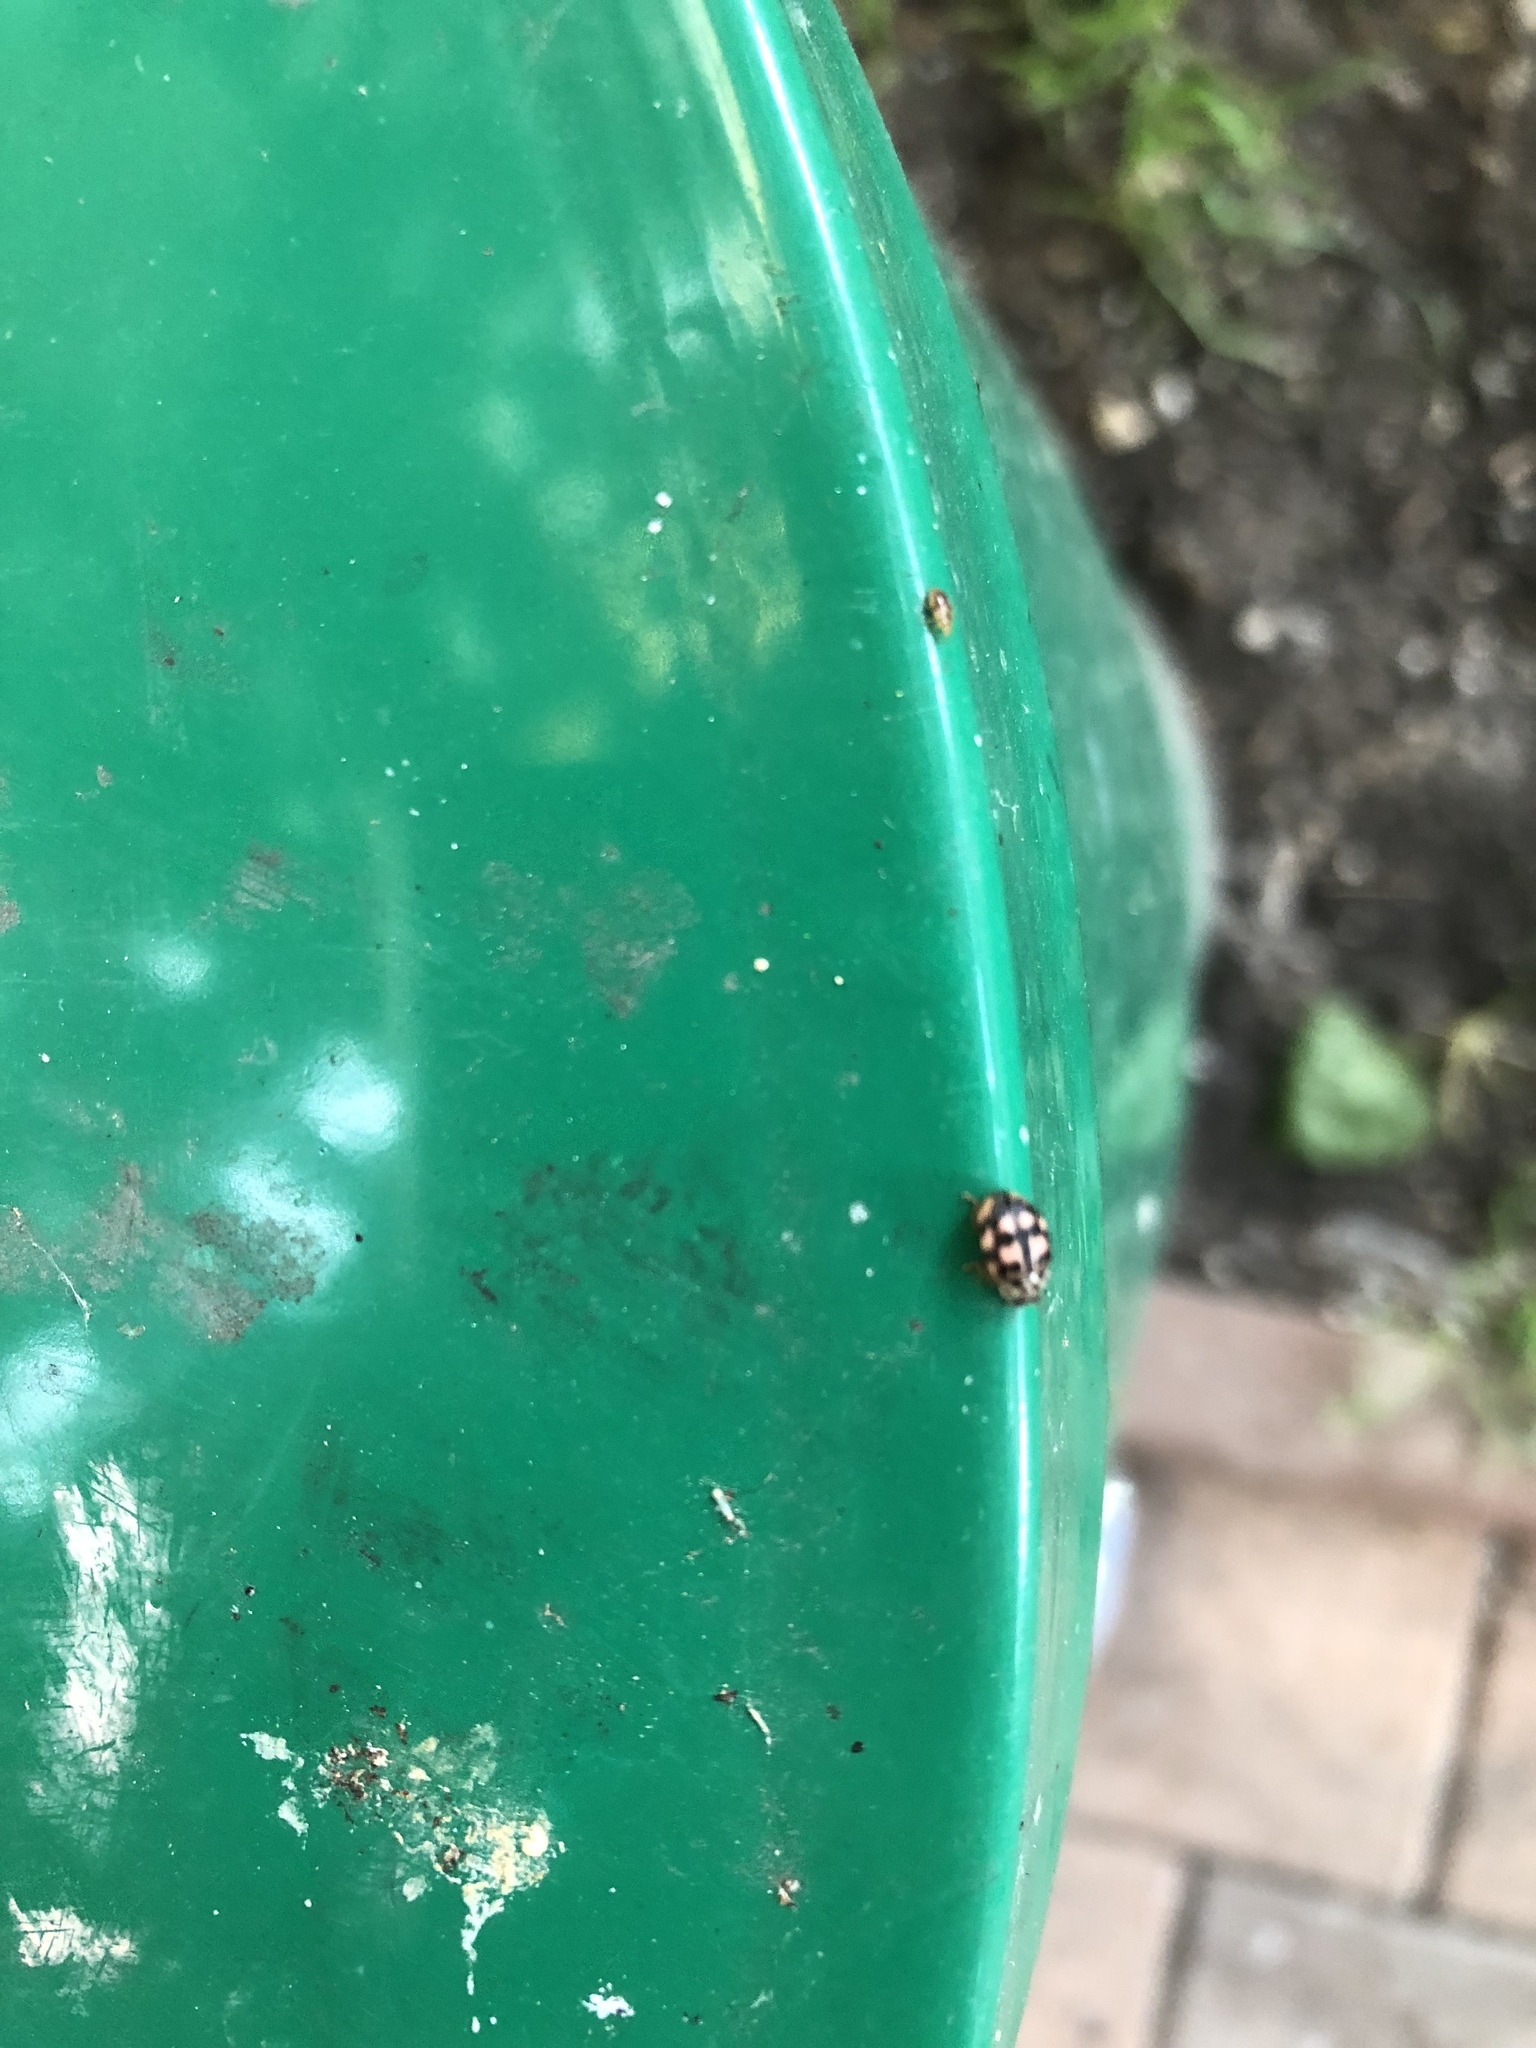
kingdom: Animalia
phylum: Arthropoda
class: Insecta
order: Coleoptera
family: Coccinellidae
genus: Oenopia
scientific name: Oenopia conglobata
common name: Ladybird beetle
